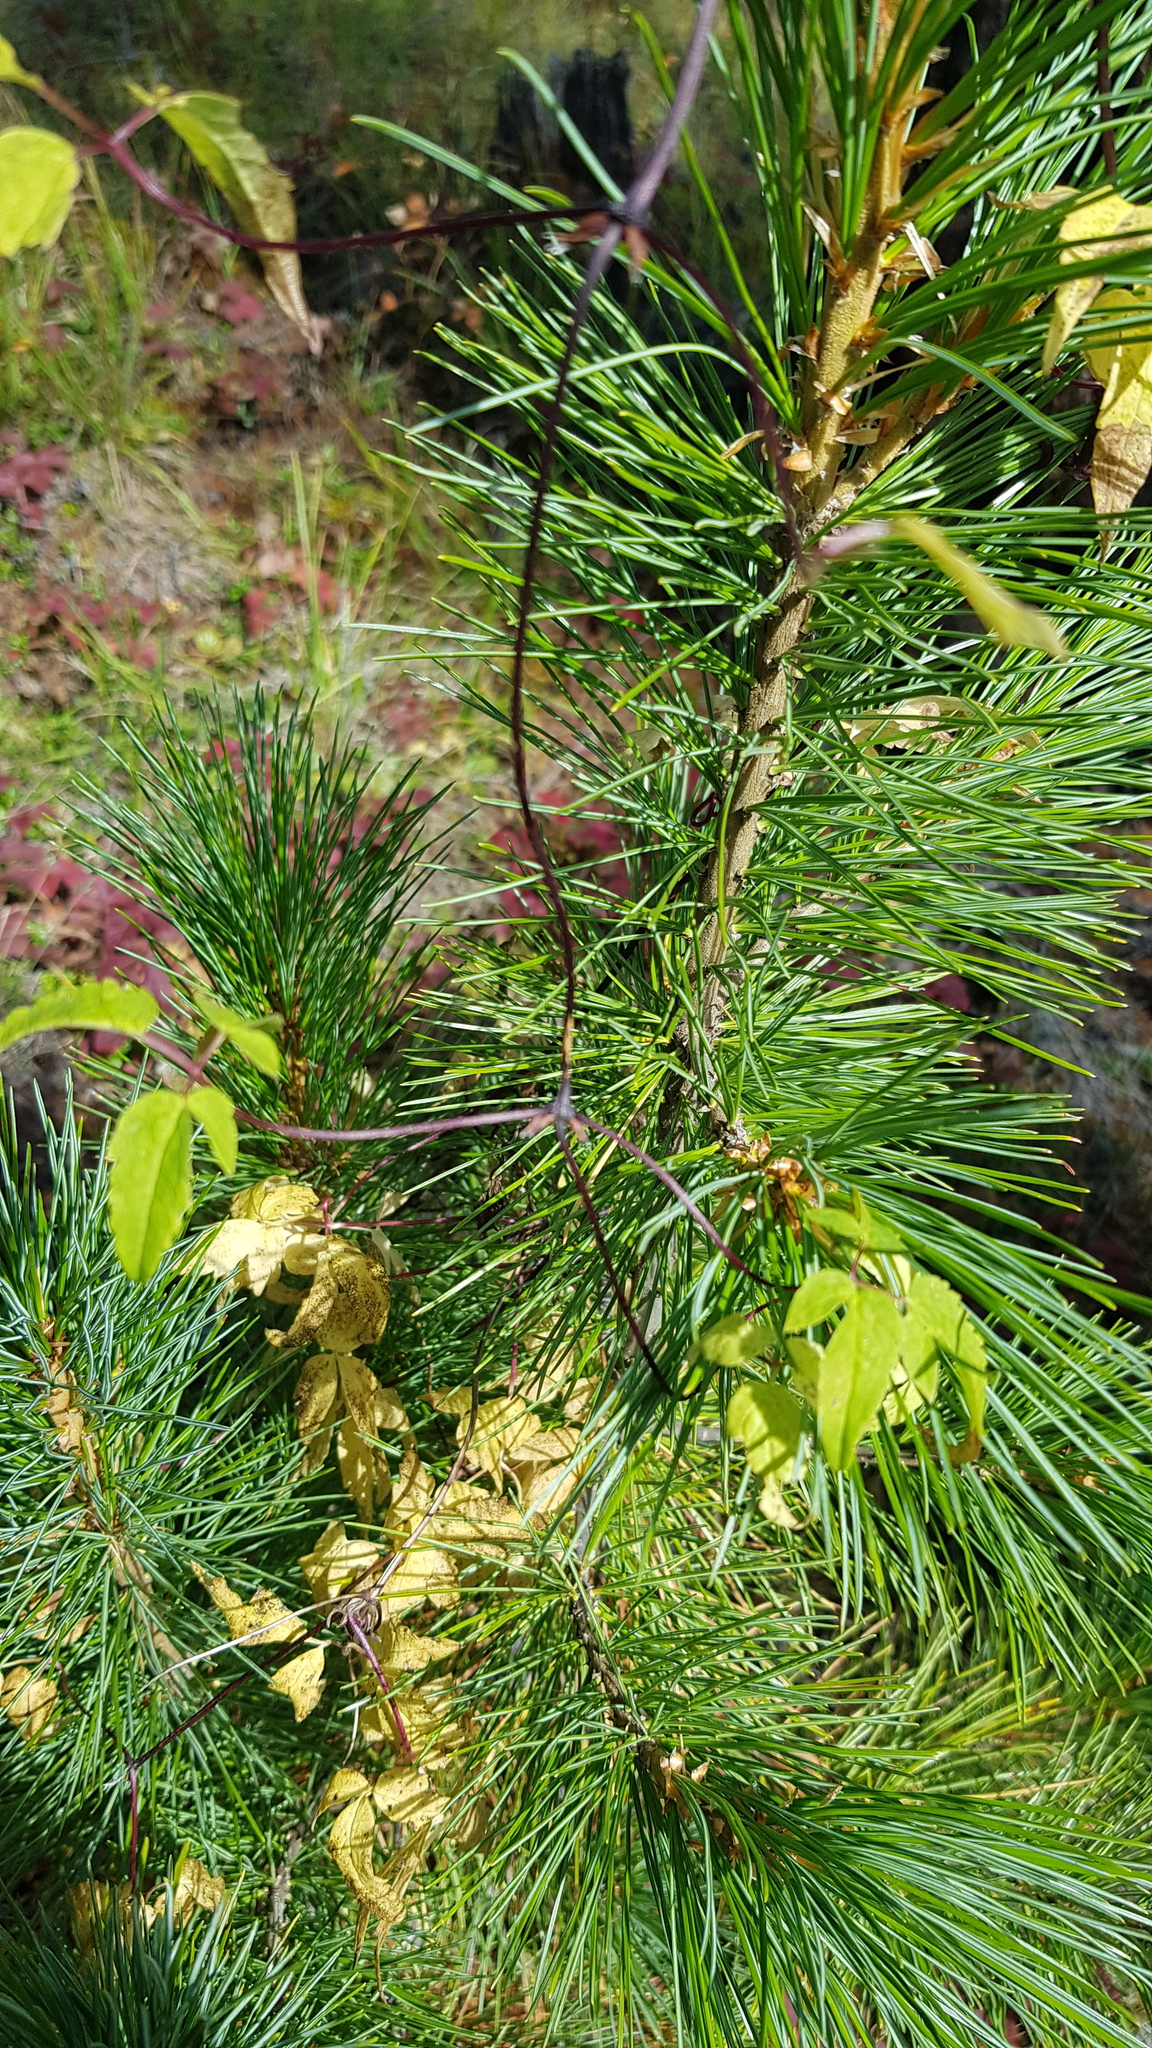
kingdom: Plantae
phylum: Tracheophyta
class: Pinopsida
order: Pinales
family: Pinaceae
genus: Pinus
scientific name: Pinus sibirica
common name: Siberian pine
